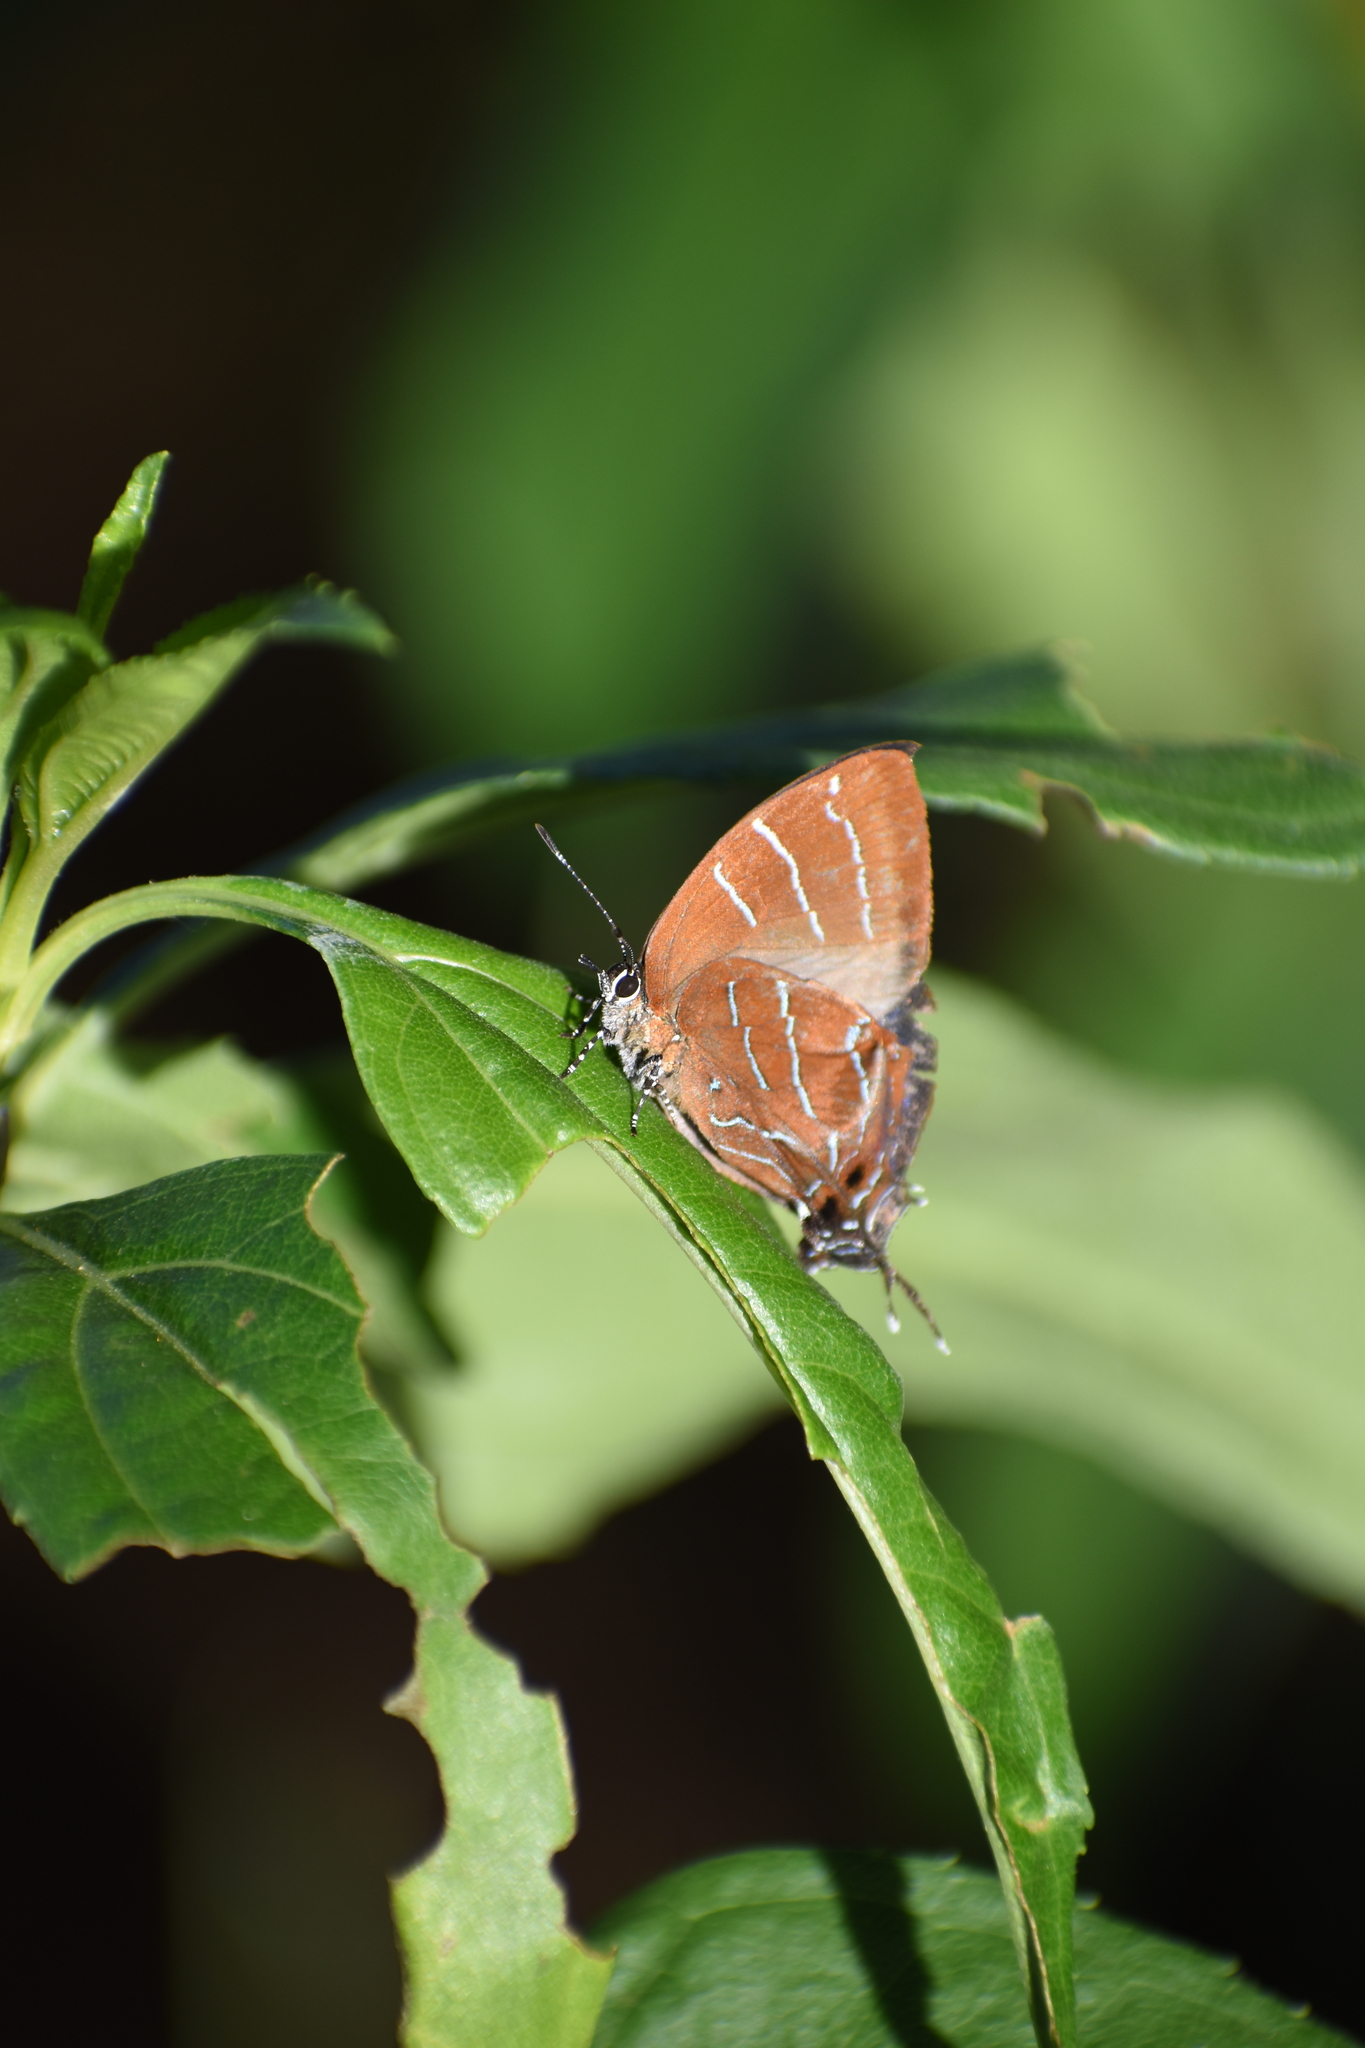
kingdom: Animalia
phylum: Arthropoda
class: Insecta
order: Lepidoptera
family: Lycaenidae
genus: Micandra
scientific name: Micandra comae
